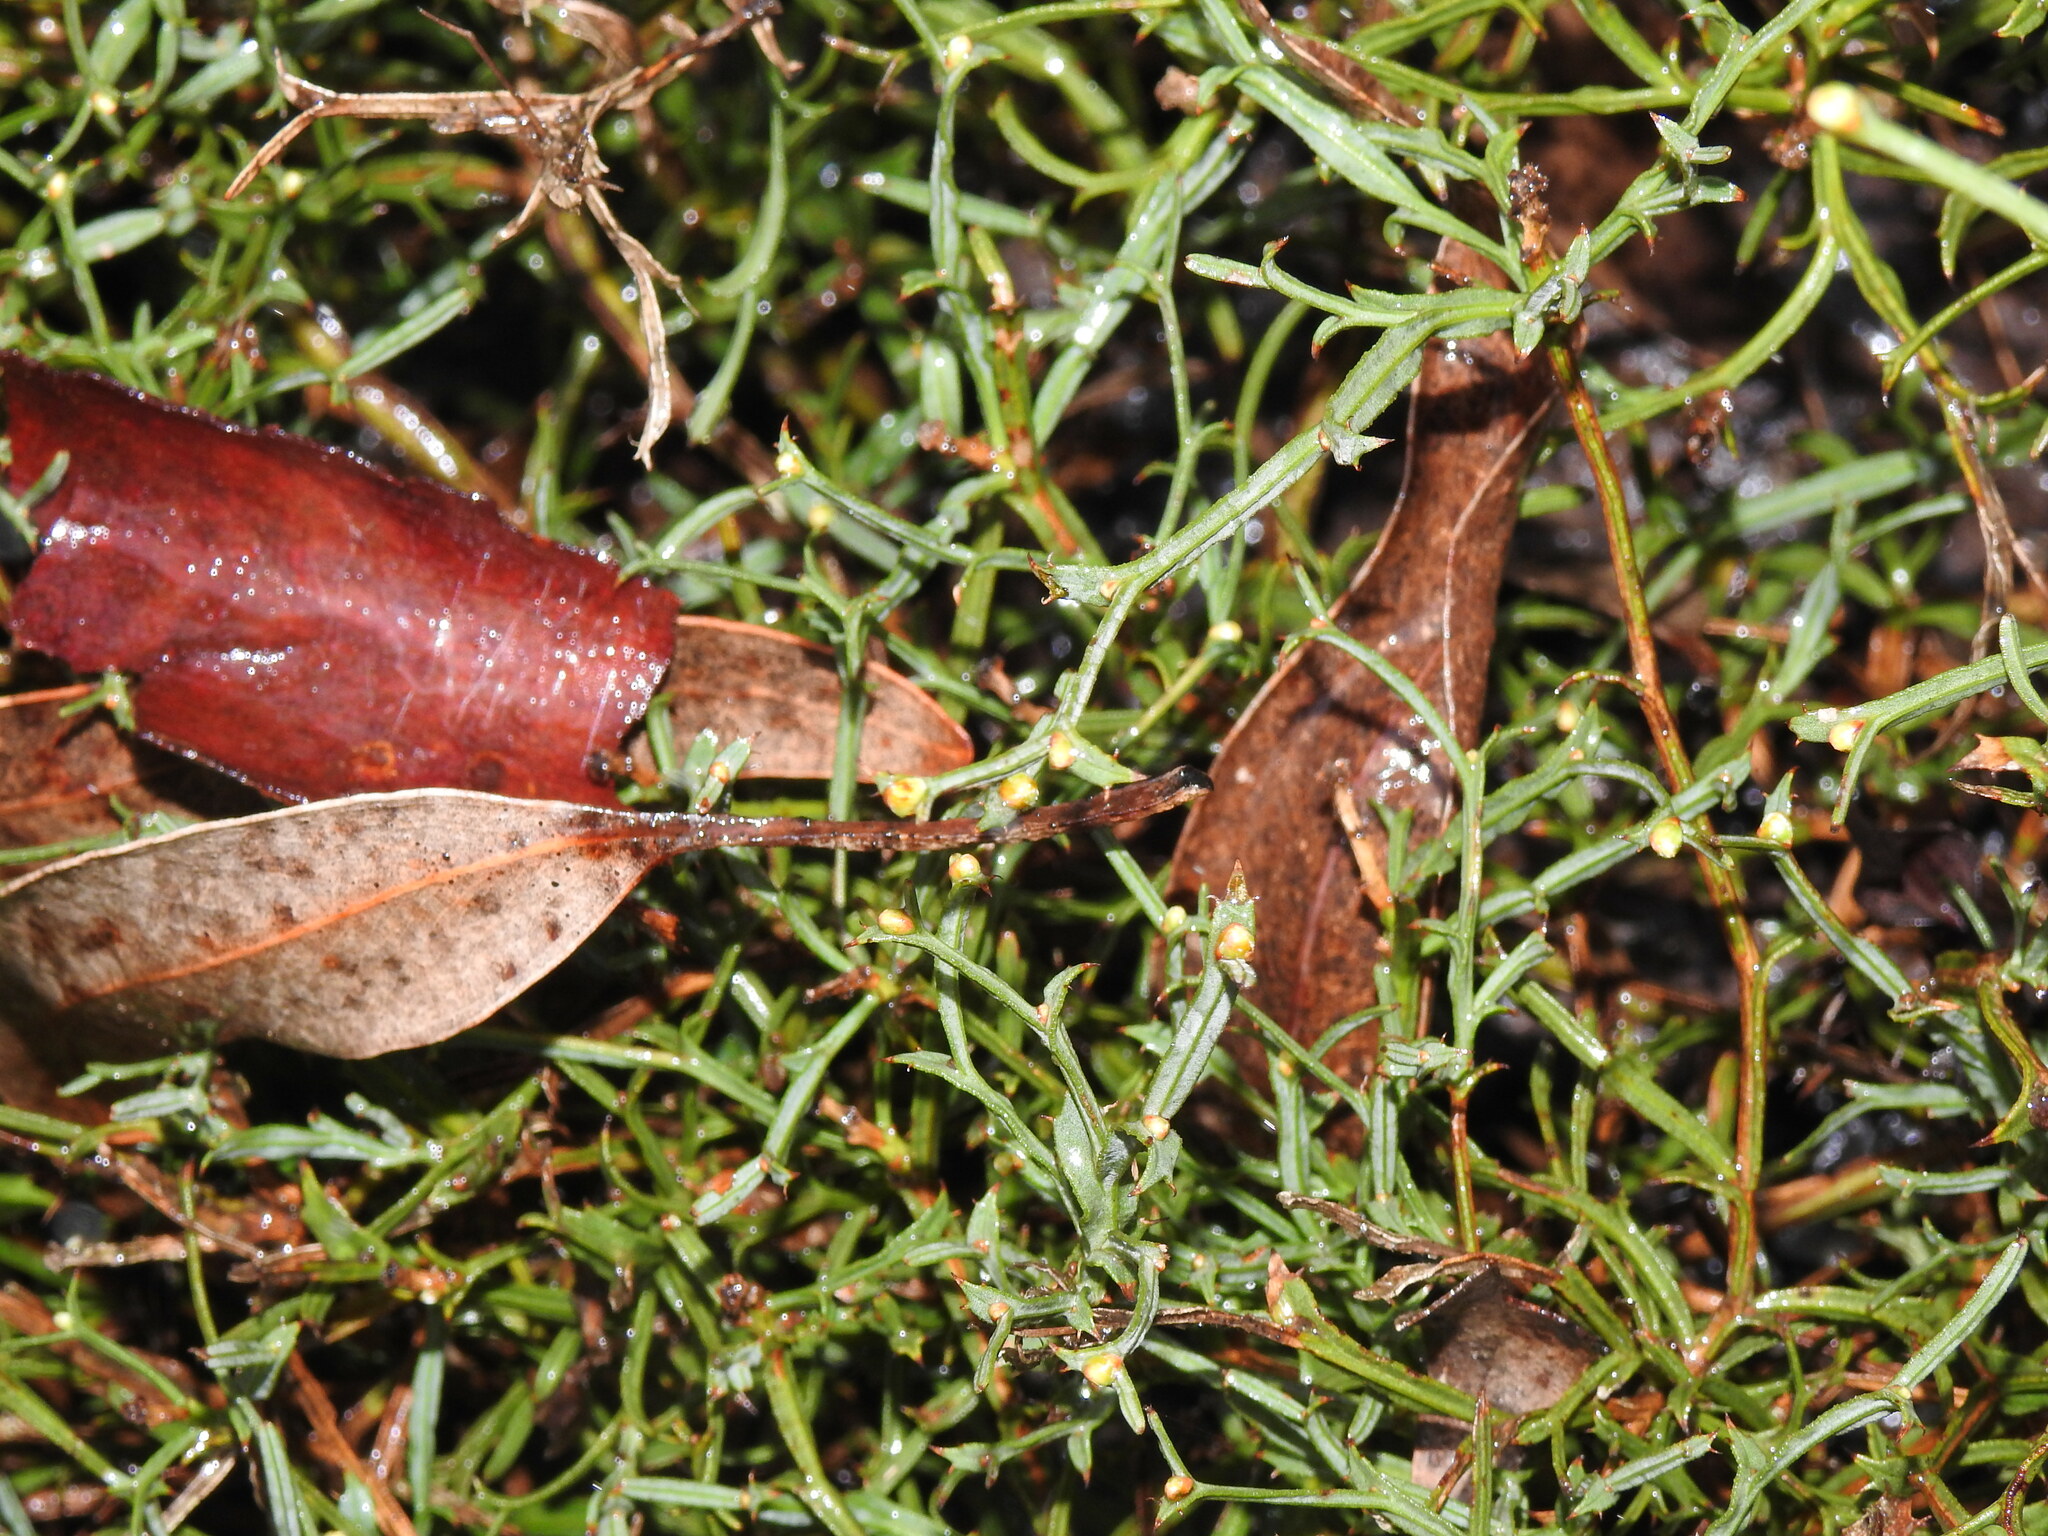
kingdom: Plantae
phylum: Tracheophyta
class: Magnoliopsida
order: Fabales
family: Fabaceae
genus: Genista
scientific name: Genista tridentata
